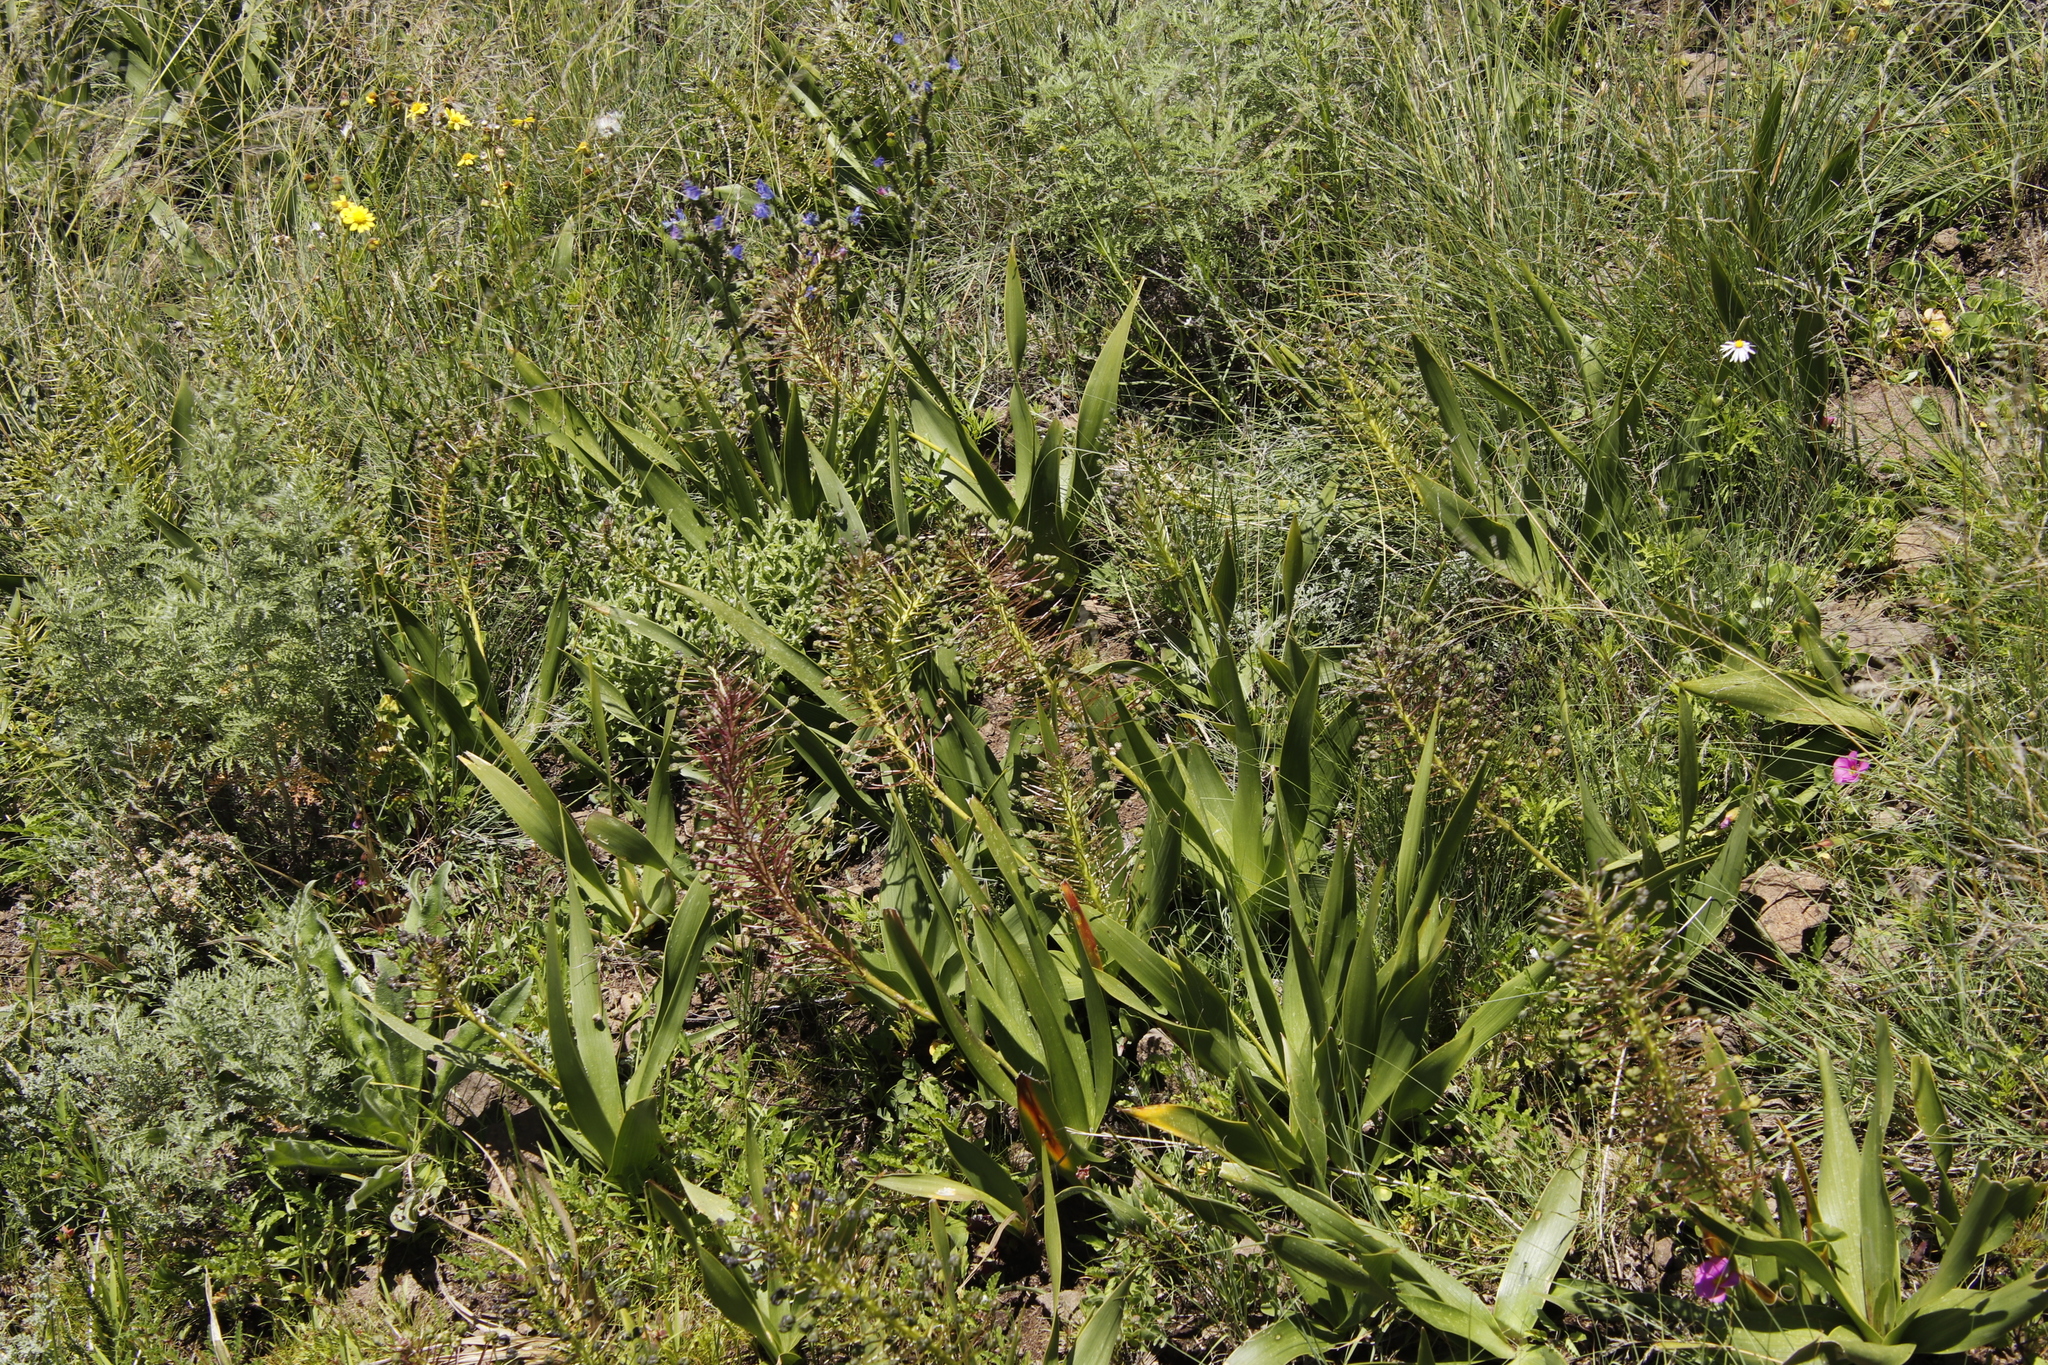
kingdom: Plantae
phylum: Tracheophyta
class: Liliopsida
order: Asparagales
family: Asparagaceae
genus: Schizocarphus
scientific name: Schizocarphus nervosus
